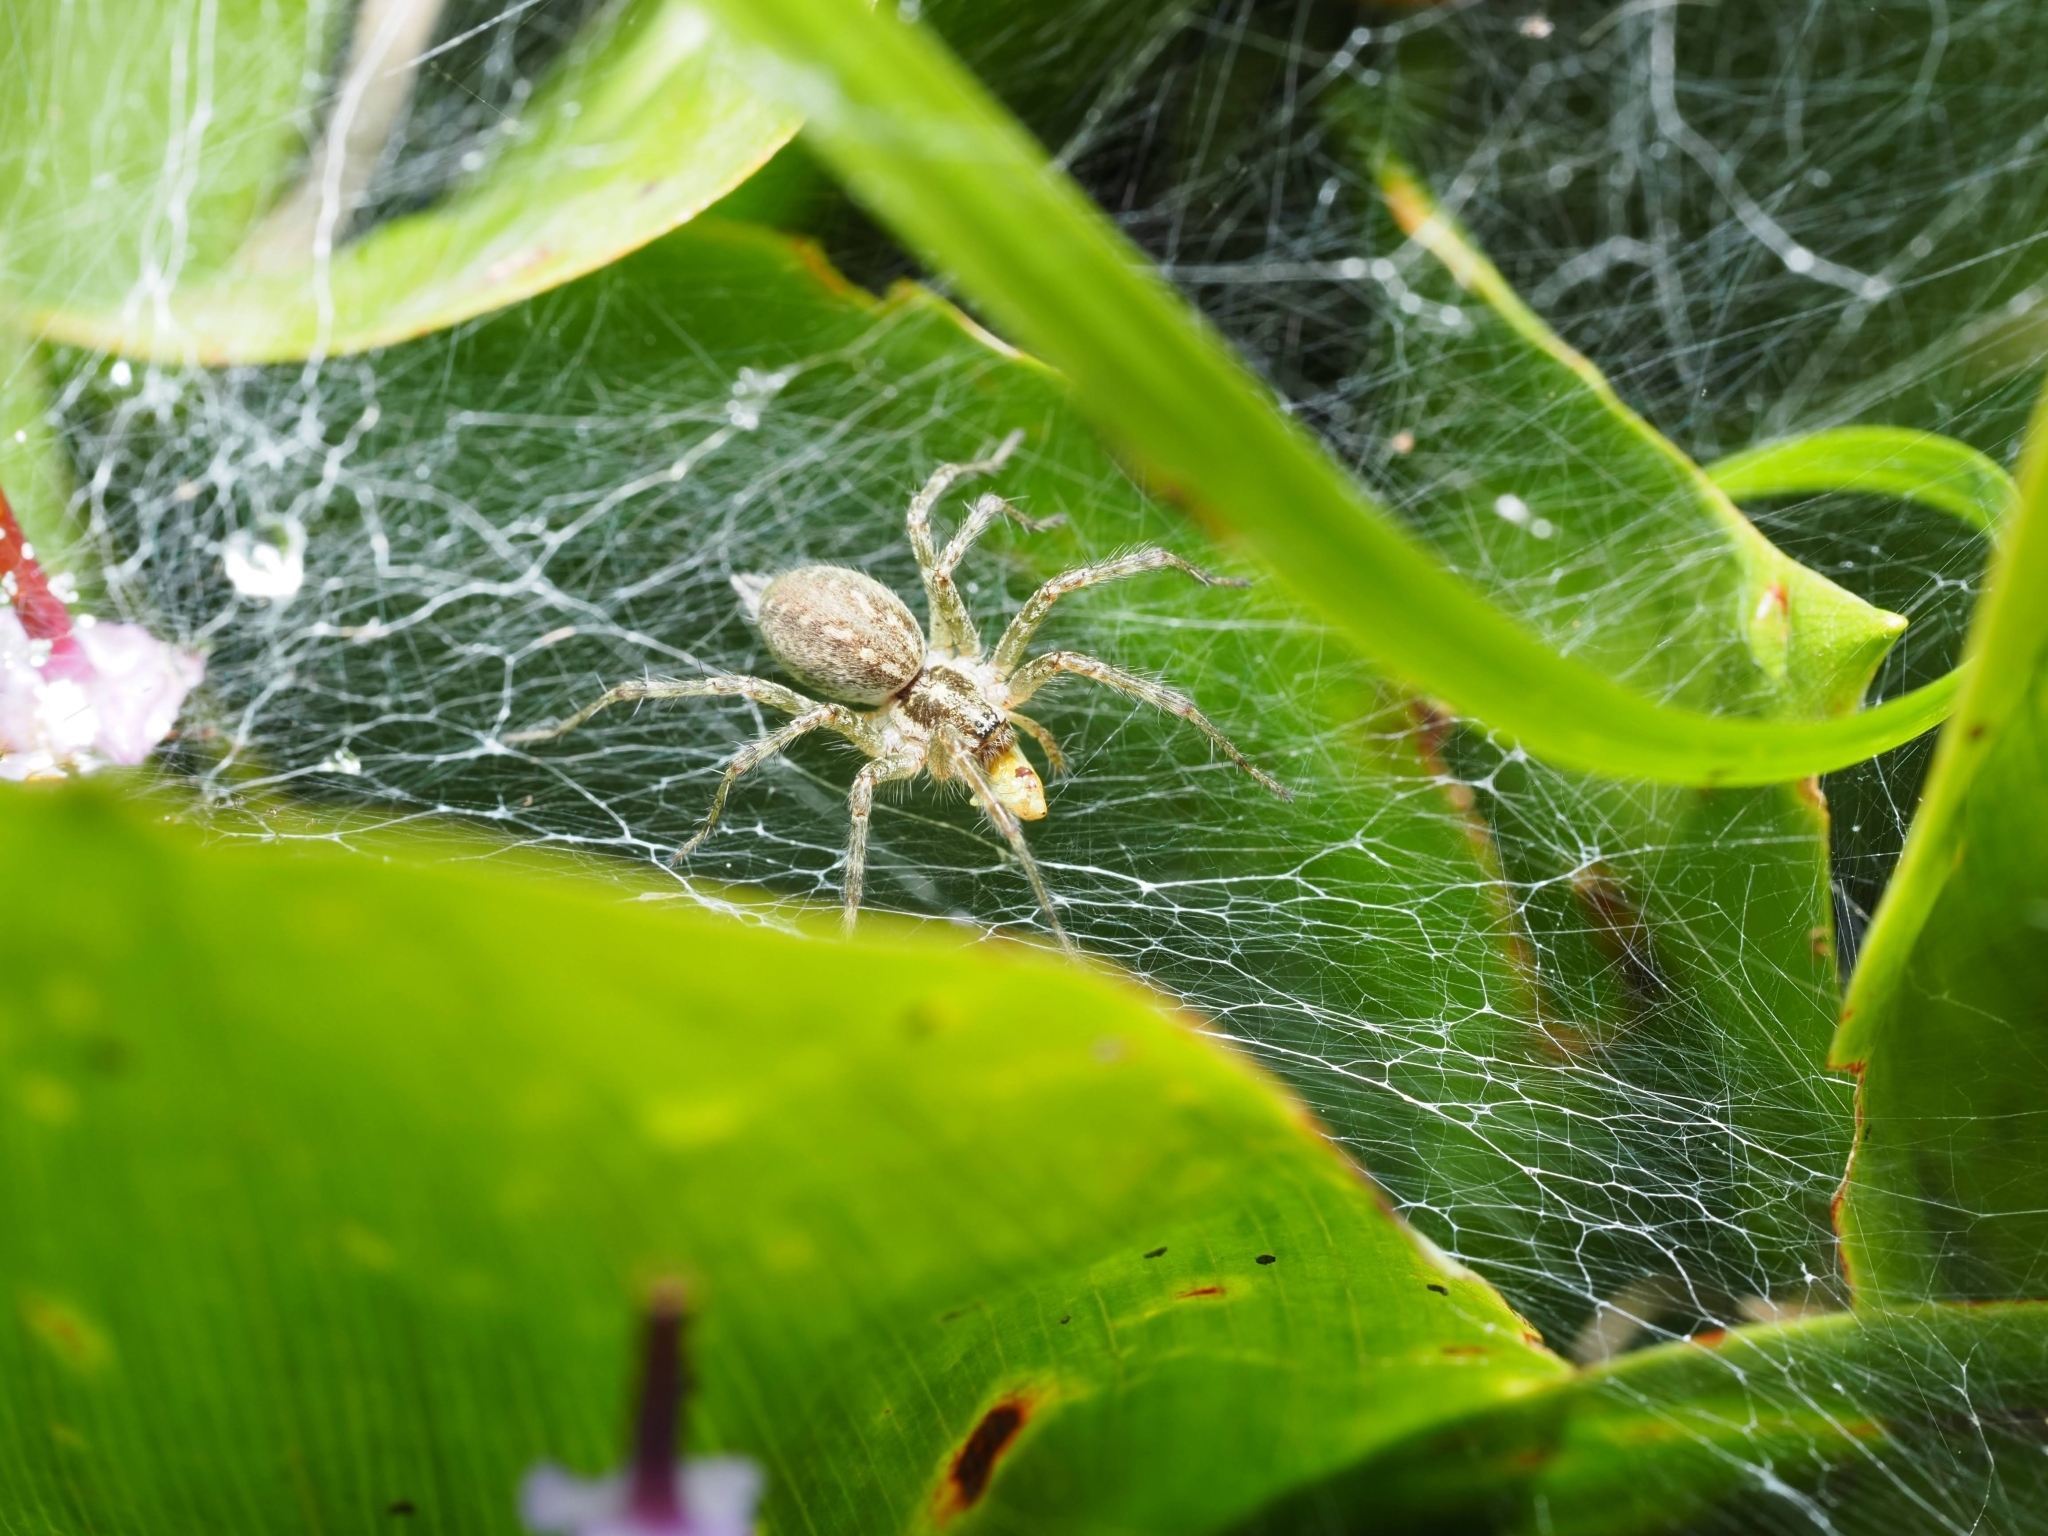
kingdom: Animalia
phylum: Arthropoda
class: Arachnida
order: Araneae
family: Agelenidae
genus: Allagelena
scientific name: Allagelena gracilens
